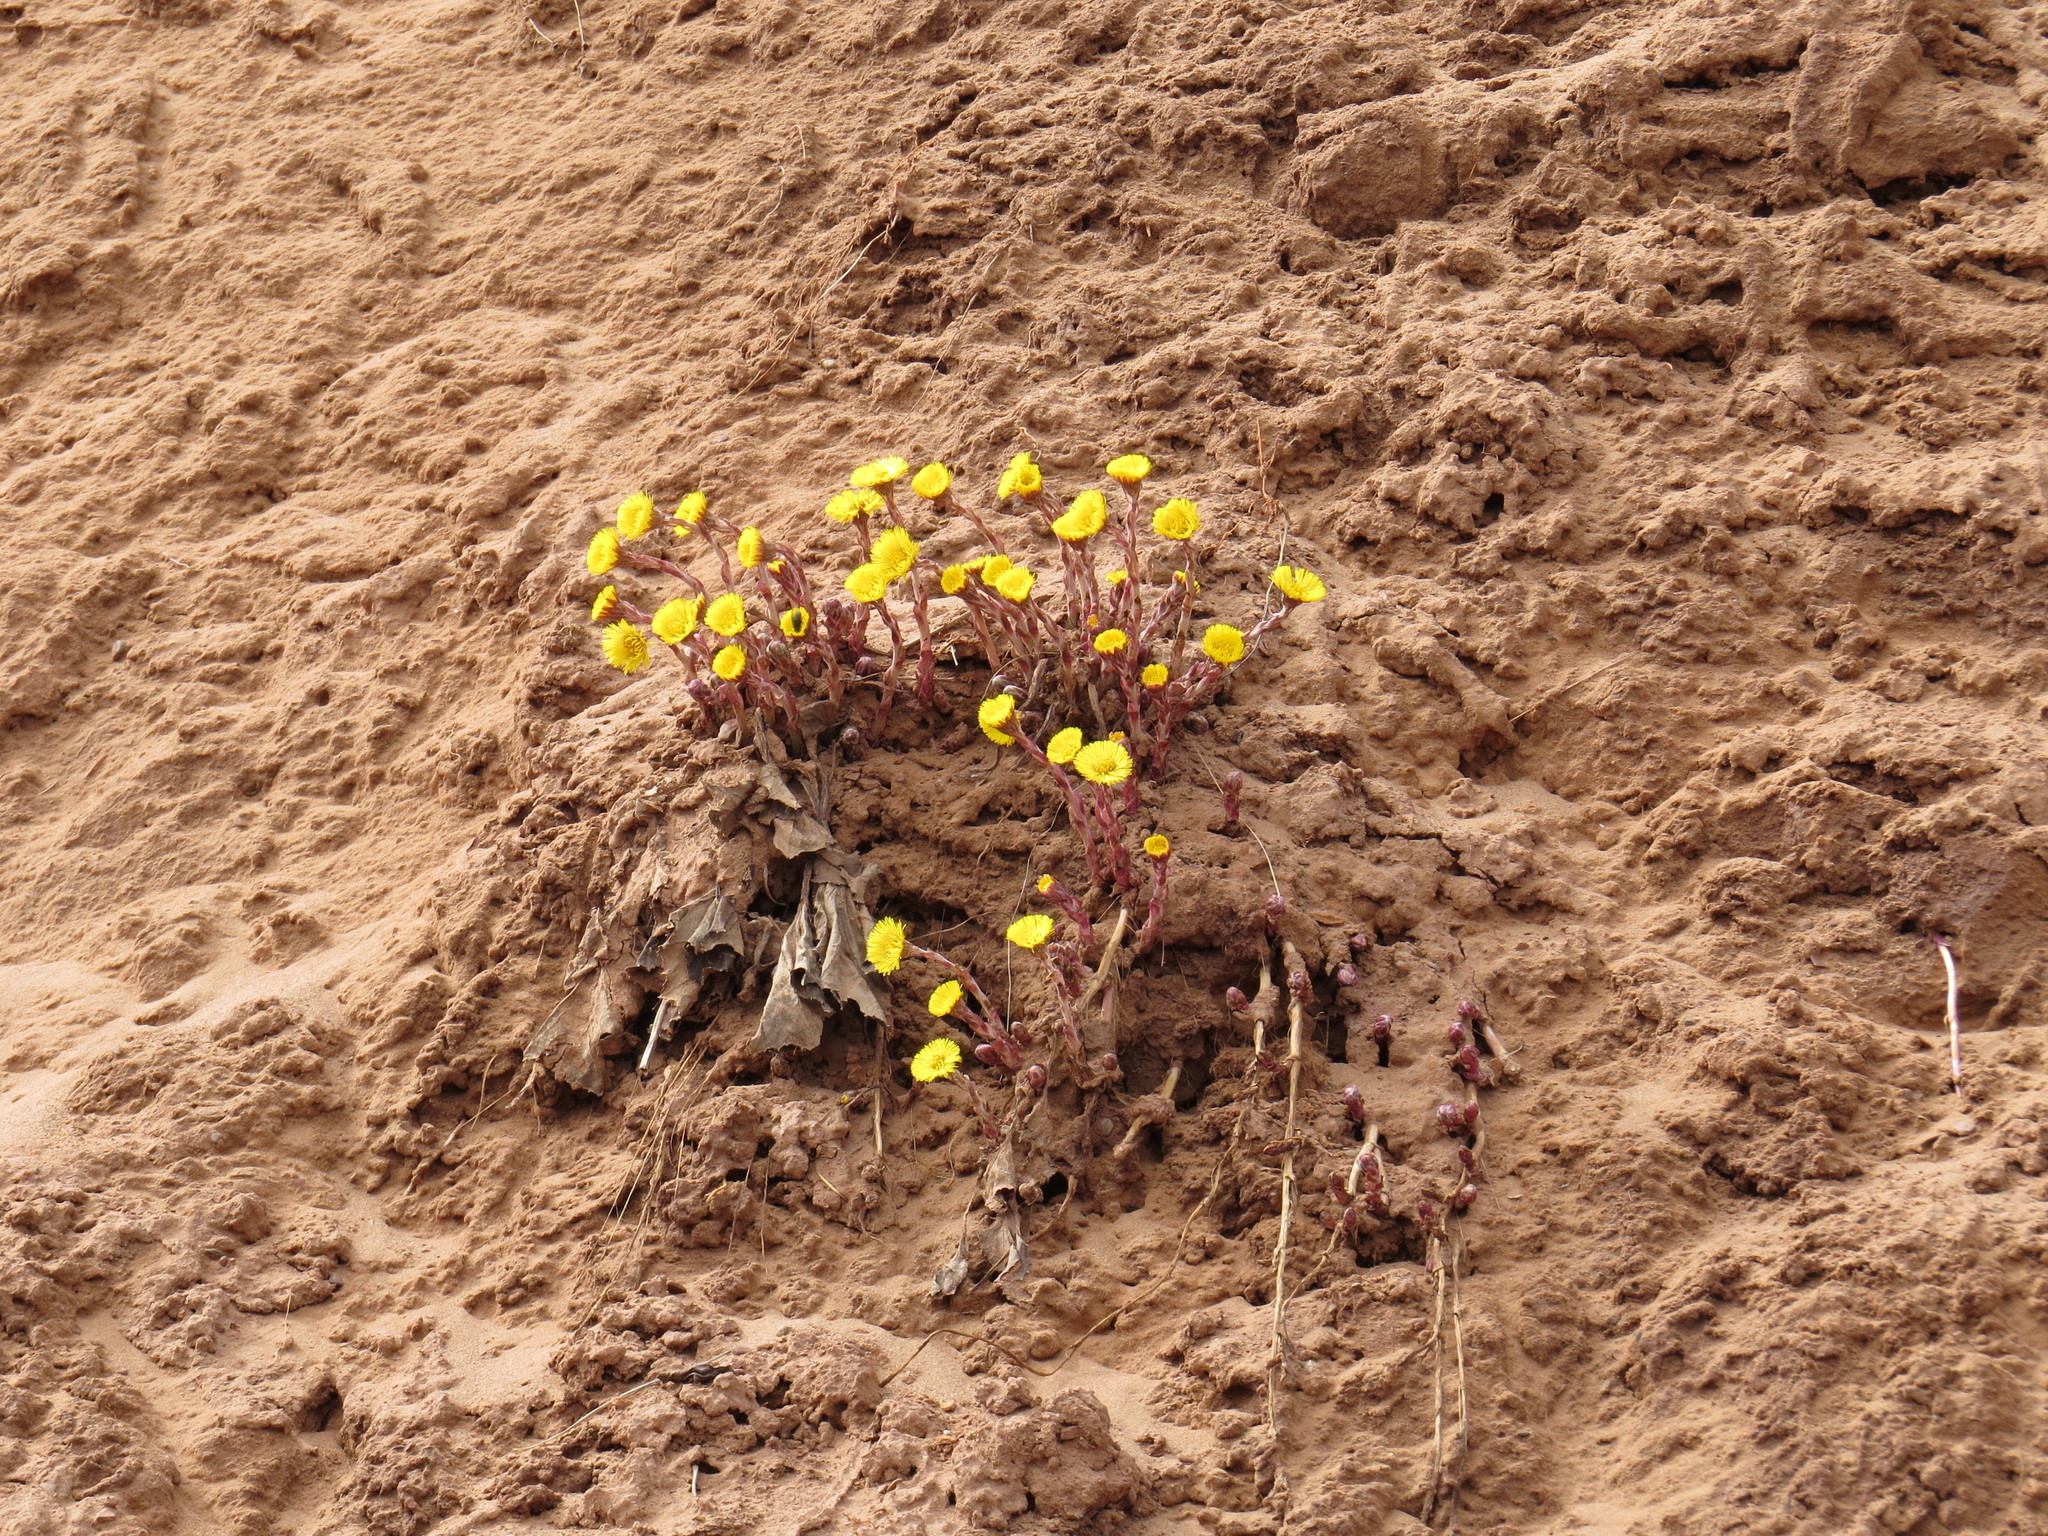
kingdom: Plantae
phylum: Tracheophyta
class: Magnoliopsida
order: Asterales
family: Asteraceae
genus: Tussilago
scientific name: Tussilago farfara
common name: Coltsfoot
